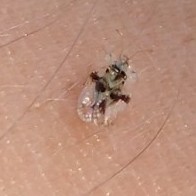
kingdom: Animalia
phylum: Arthropoda
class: Insecta
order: Hemiptera
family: Tingidae
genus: Corythucha
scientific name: Corythucha arcuata
